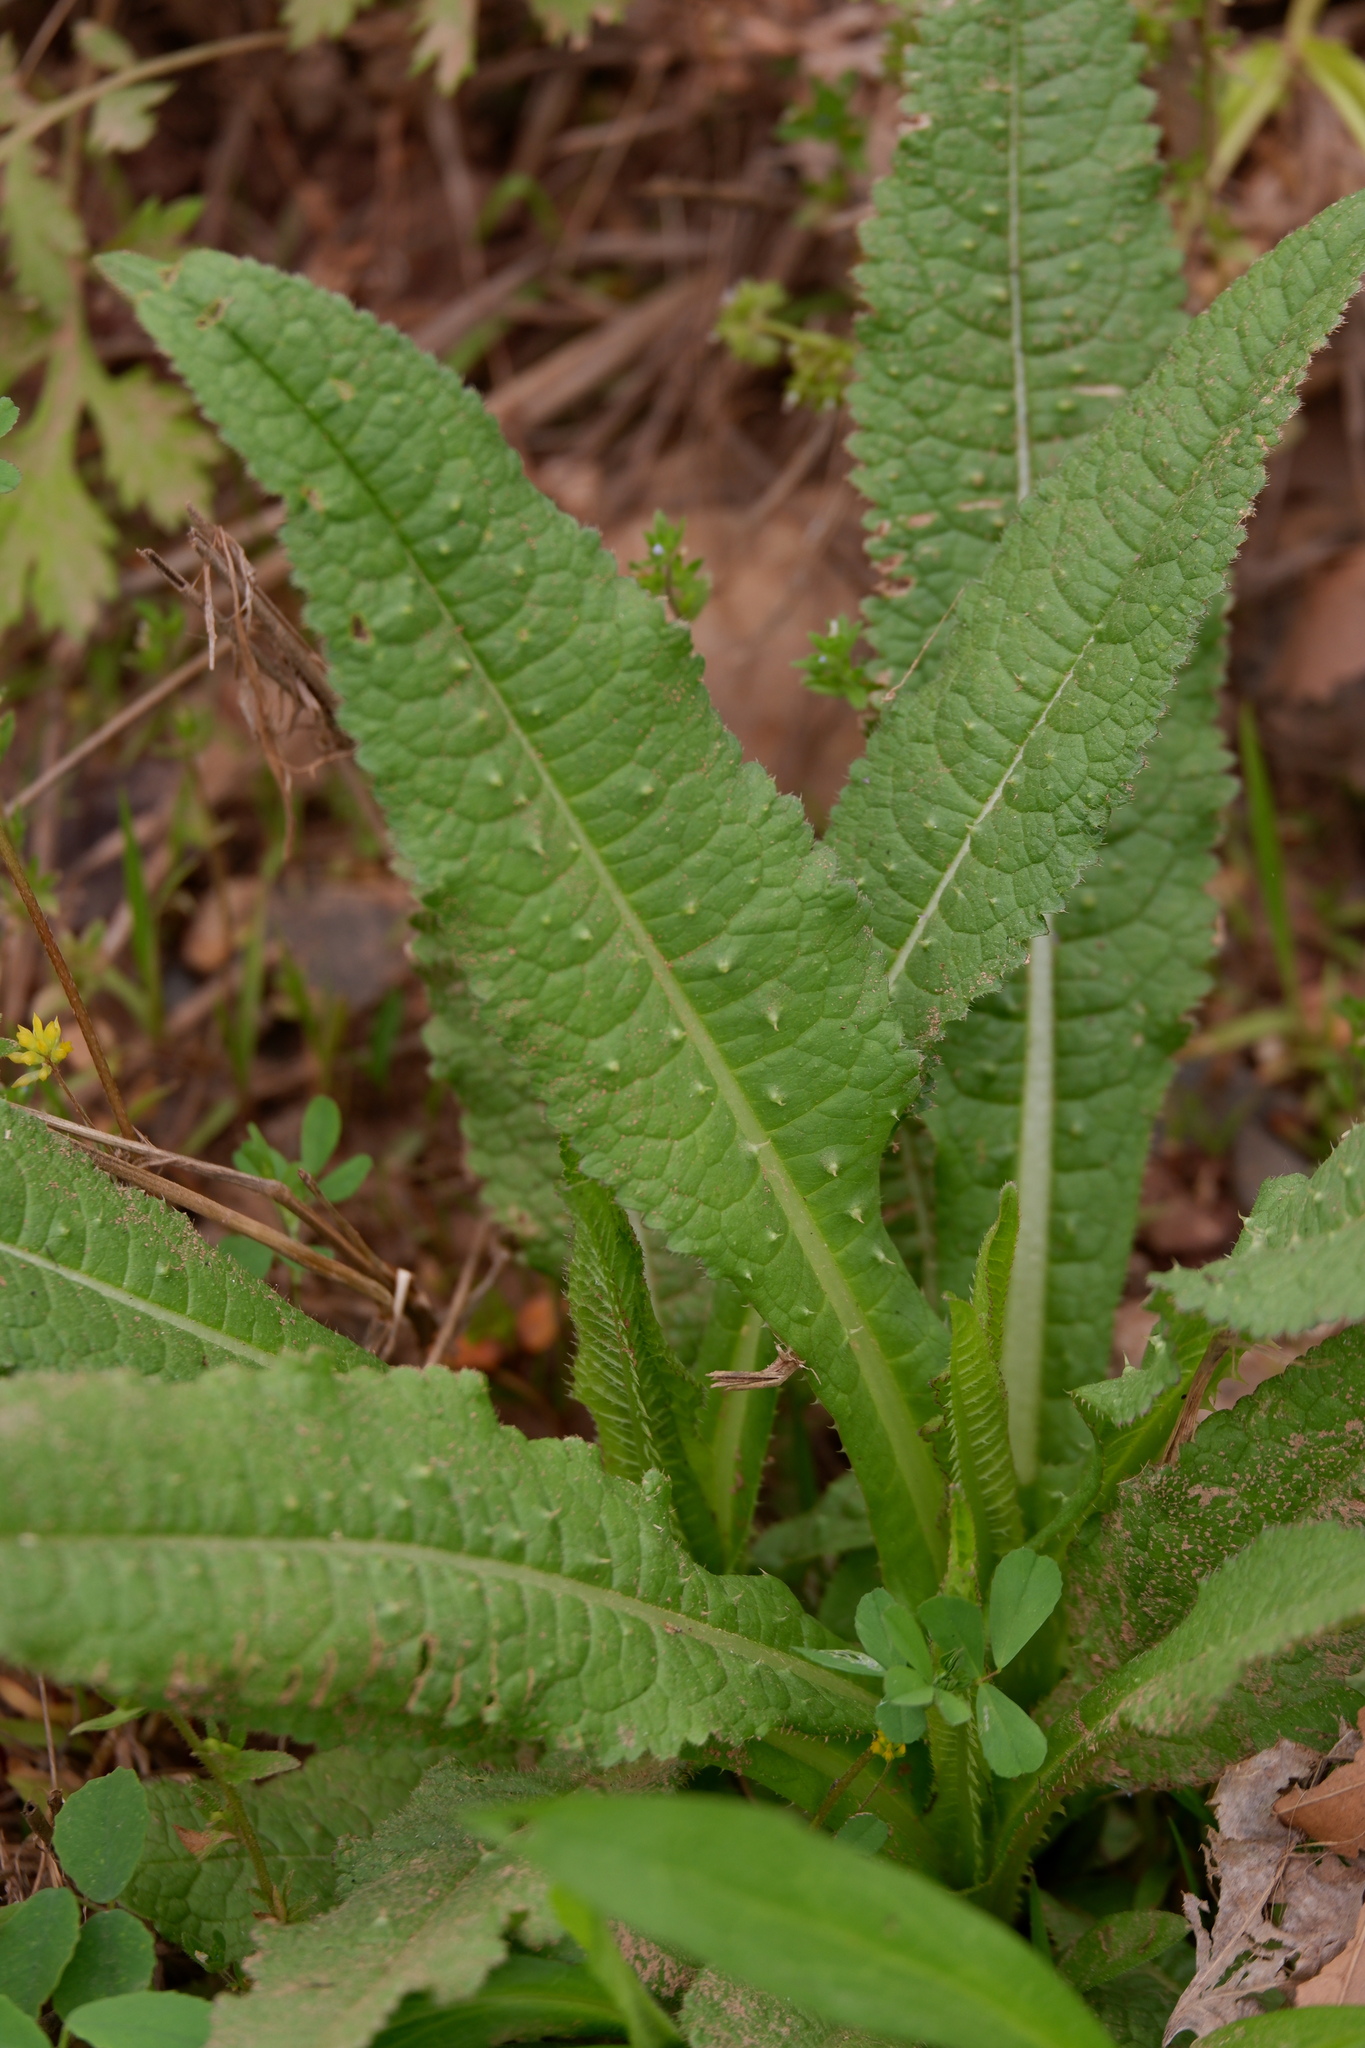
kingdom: Plantae
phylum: Tracheophyta
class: Magnoliopsida
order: Dipsacales
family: Caprifoliaceae
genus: Dipsacus
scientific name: Dipsacus fullonum
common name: Teasel
